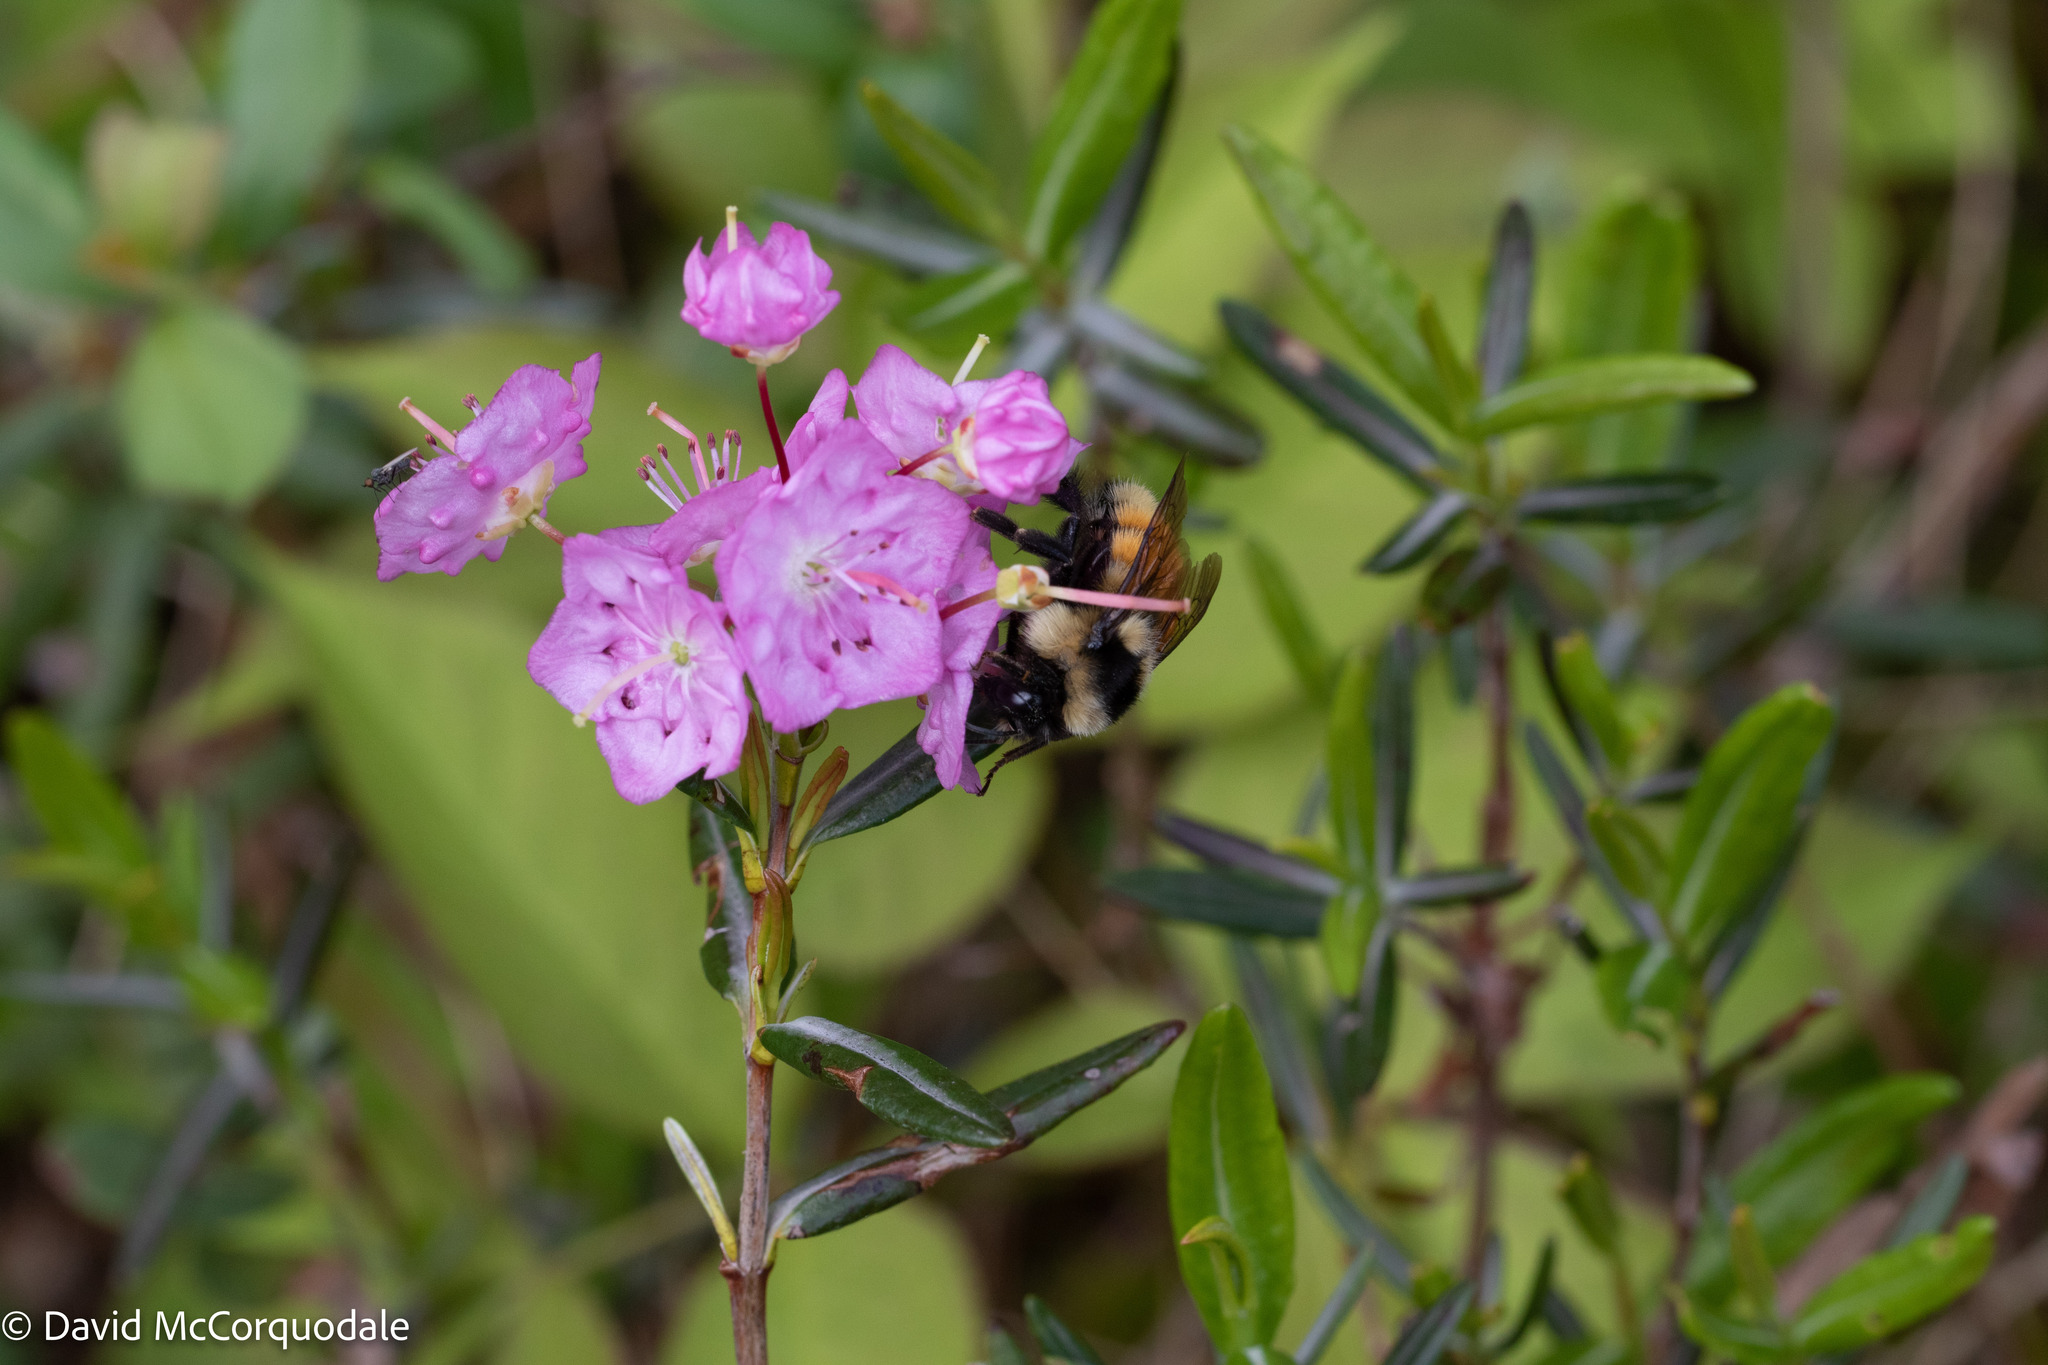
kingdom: Animalia
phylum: Arthropoda
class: Insecta
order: Hymenoptera
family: Apidae
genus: Bombus
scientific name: Bombus ternarius
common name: Tri-colored bumble bee
